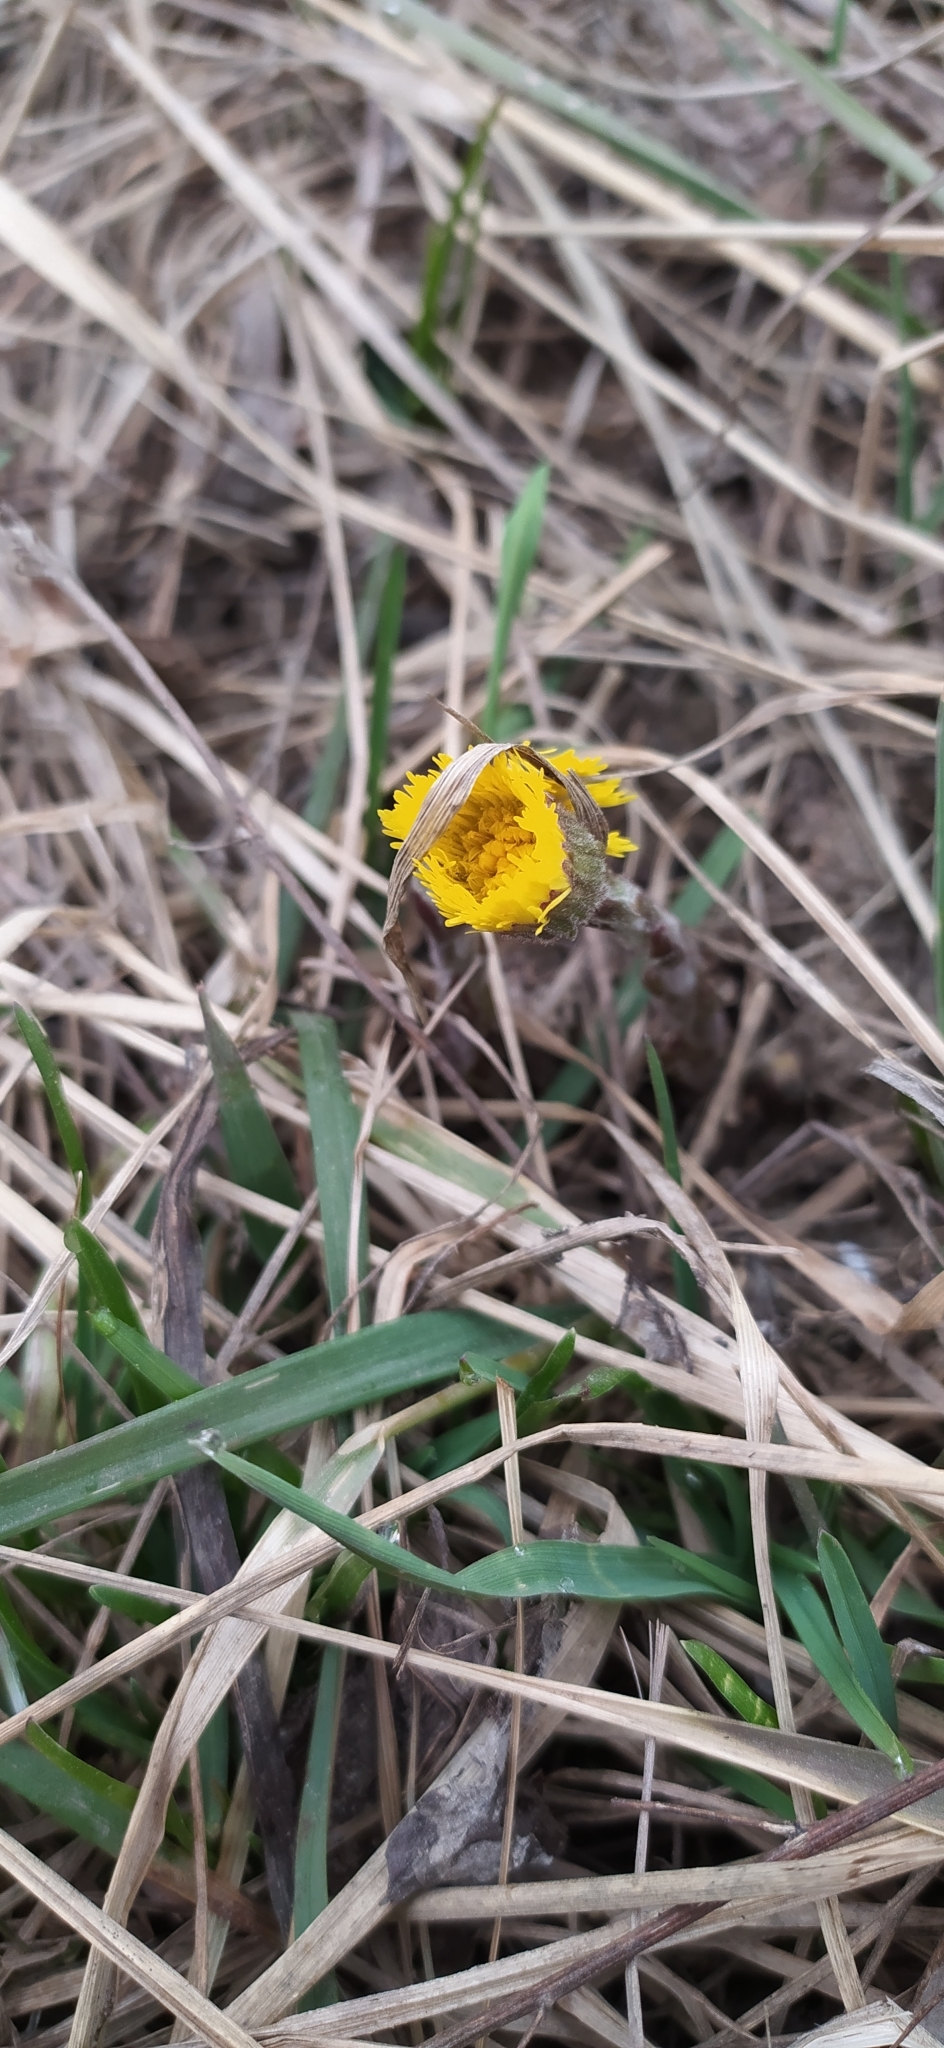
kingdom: Plantae
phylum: Tracheophyta
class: Magnoliopsida
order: Asterales
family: Asteraceae
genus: Tussilago
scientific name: Tussilago farfara
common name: Coltsfoot
